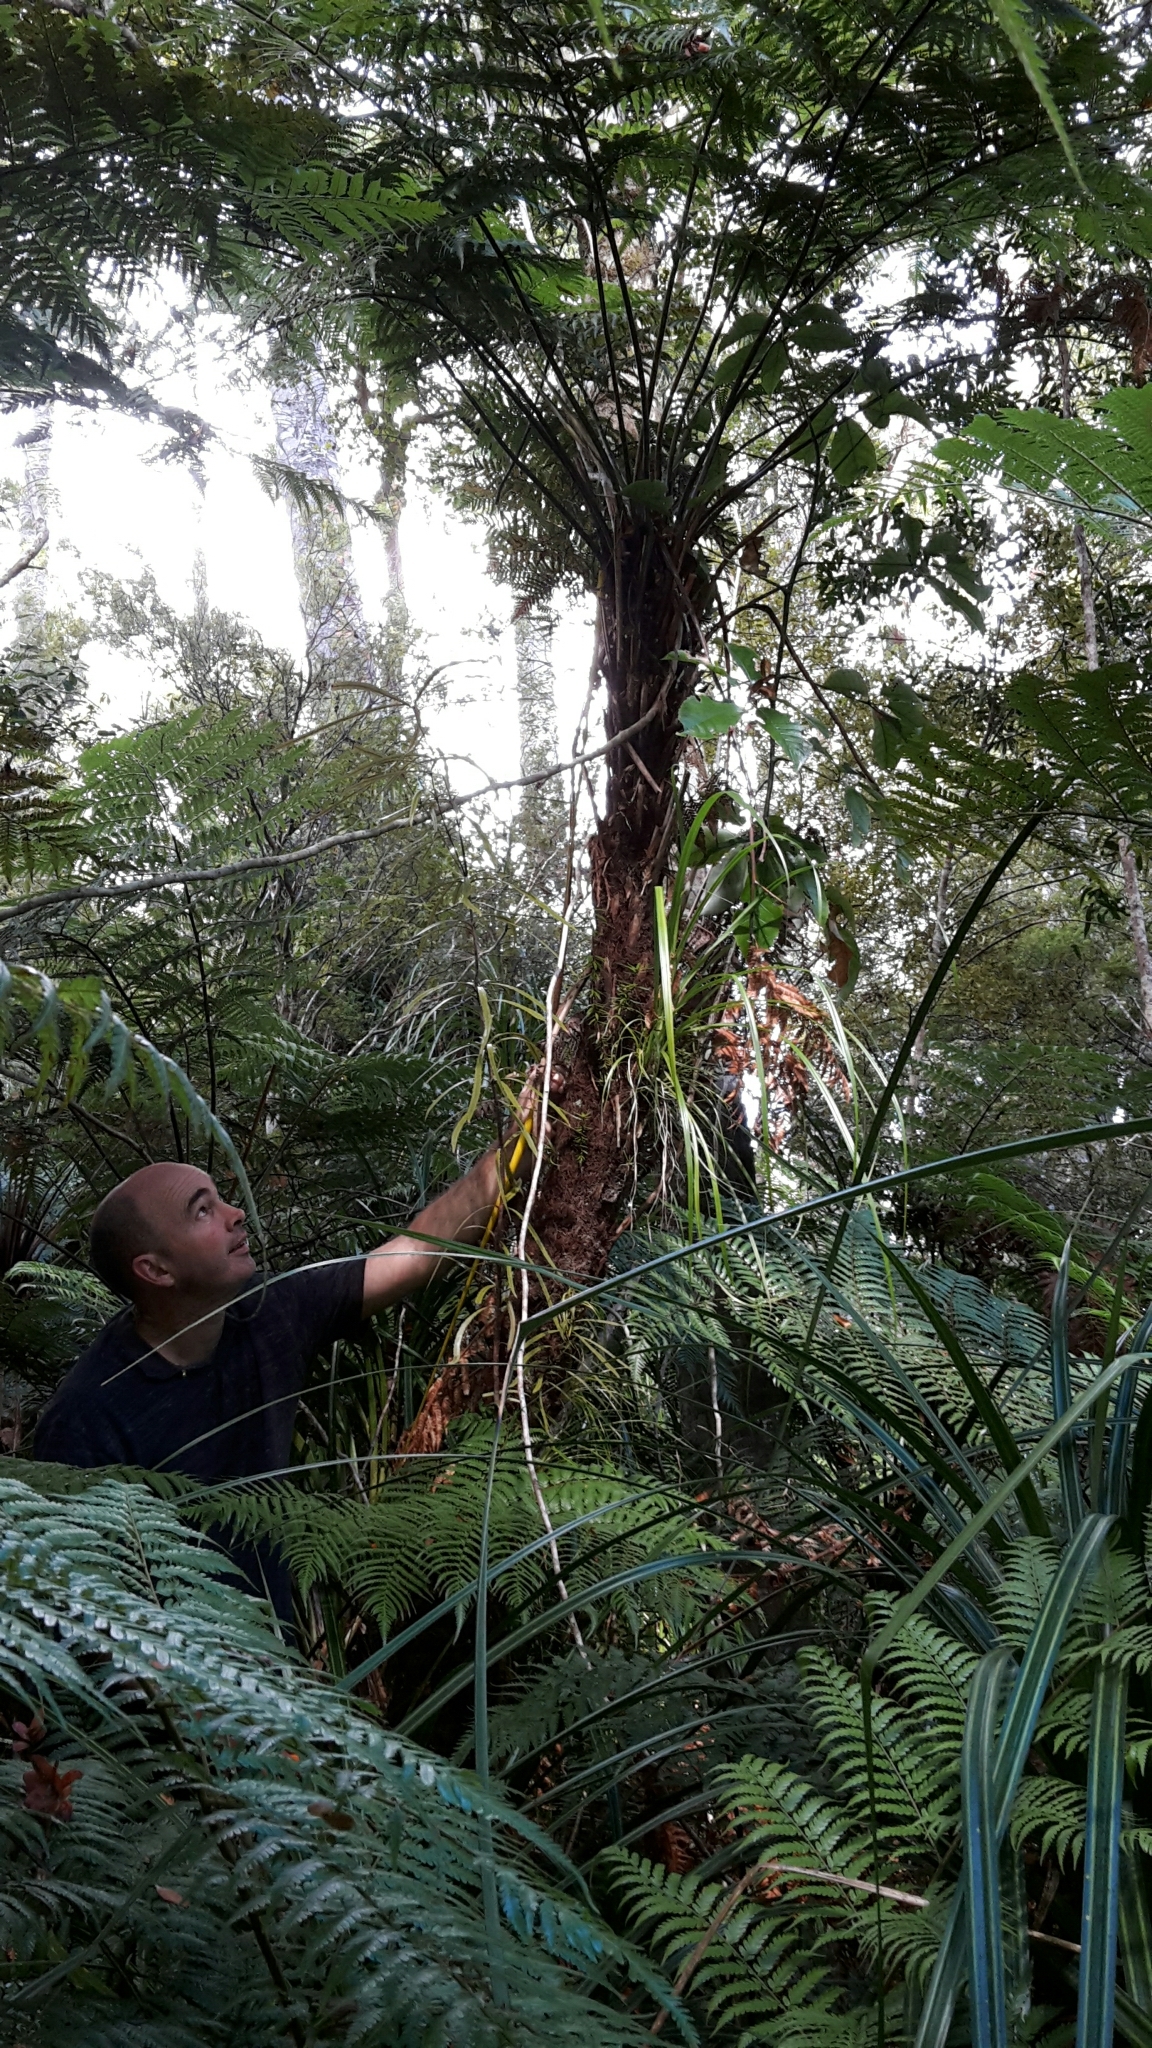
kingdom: Plantae
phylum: Tracheophyta
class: Polypodiopsida
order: Cyatheales
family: Dicksoniaceae
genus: Dicksonia
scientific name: Dicksonia lanata
